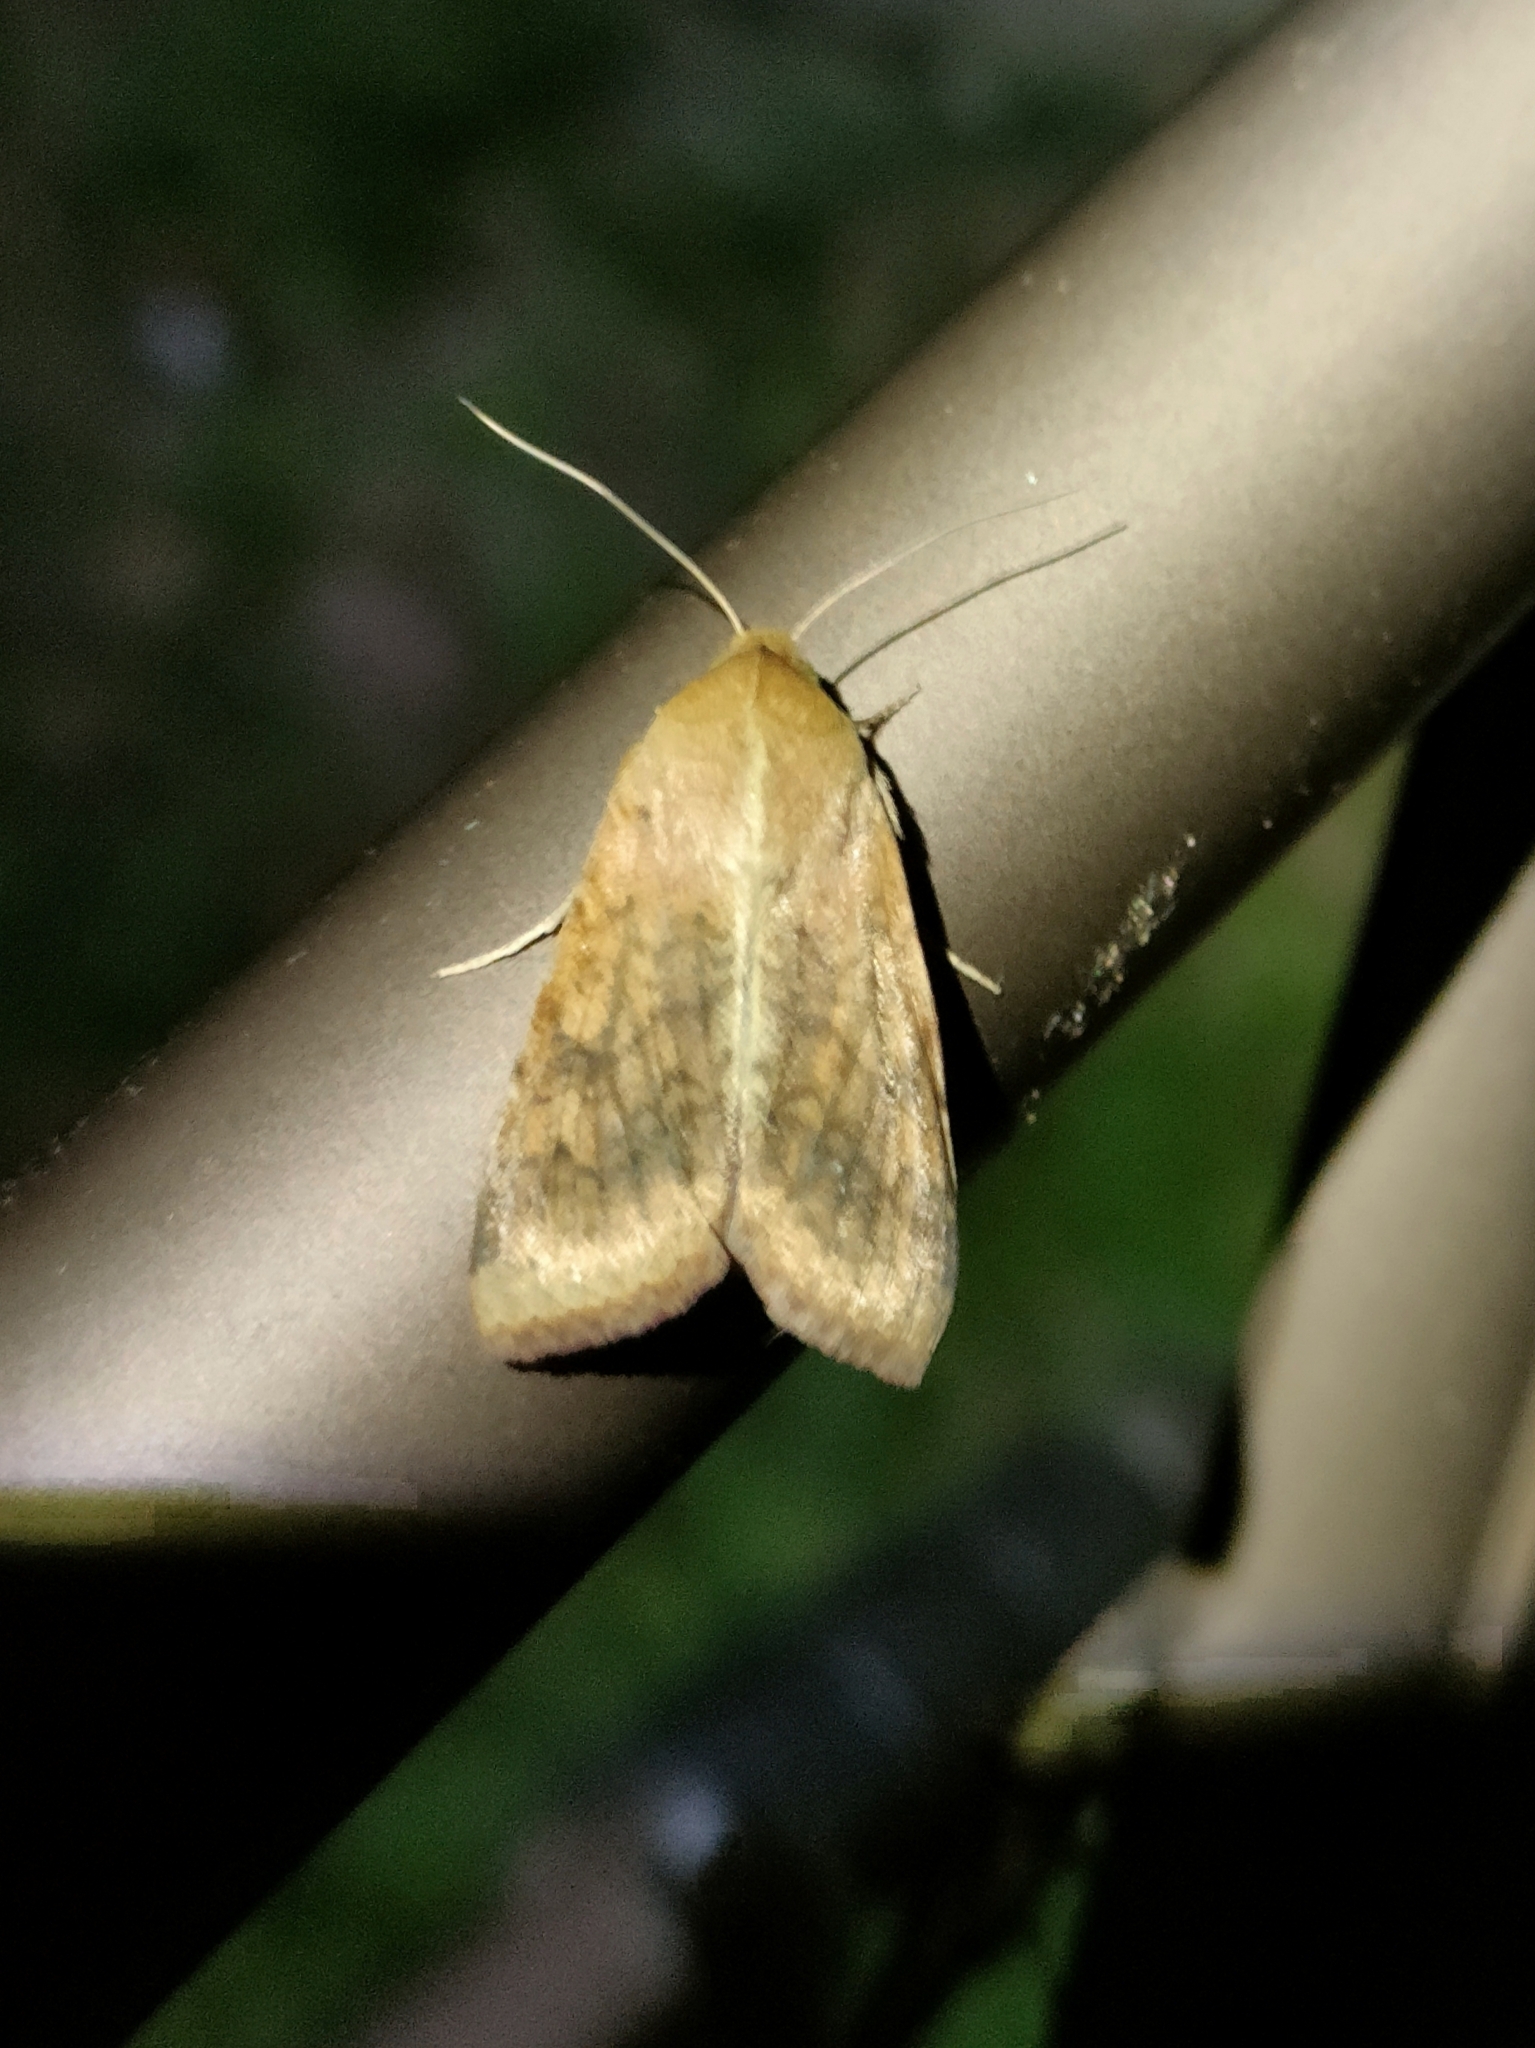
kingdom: Animalia
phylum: Arthropoda
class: Insecta
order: Lepidoptera
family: Noctuidae
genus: Helicoverpa
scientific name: Helicoverpa armigera
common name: Cotton bollworm
